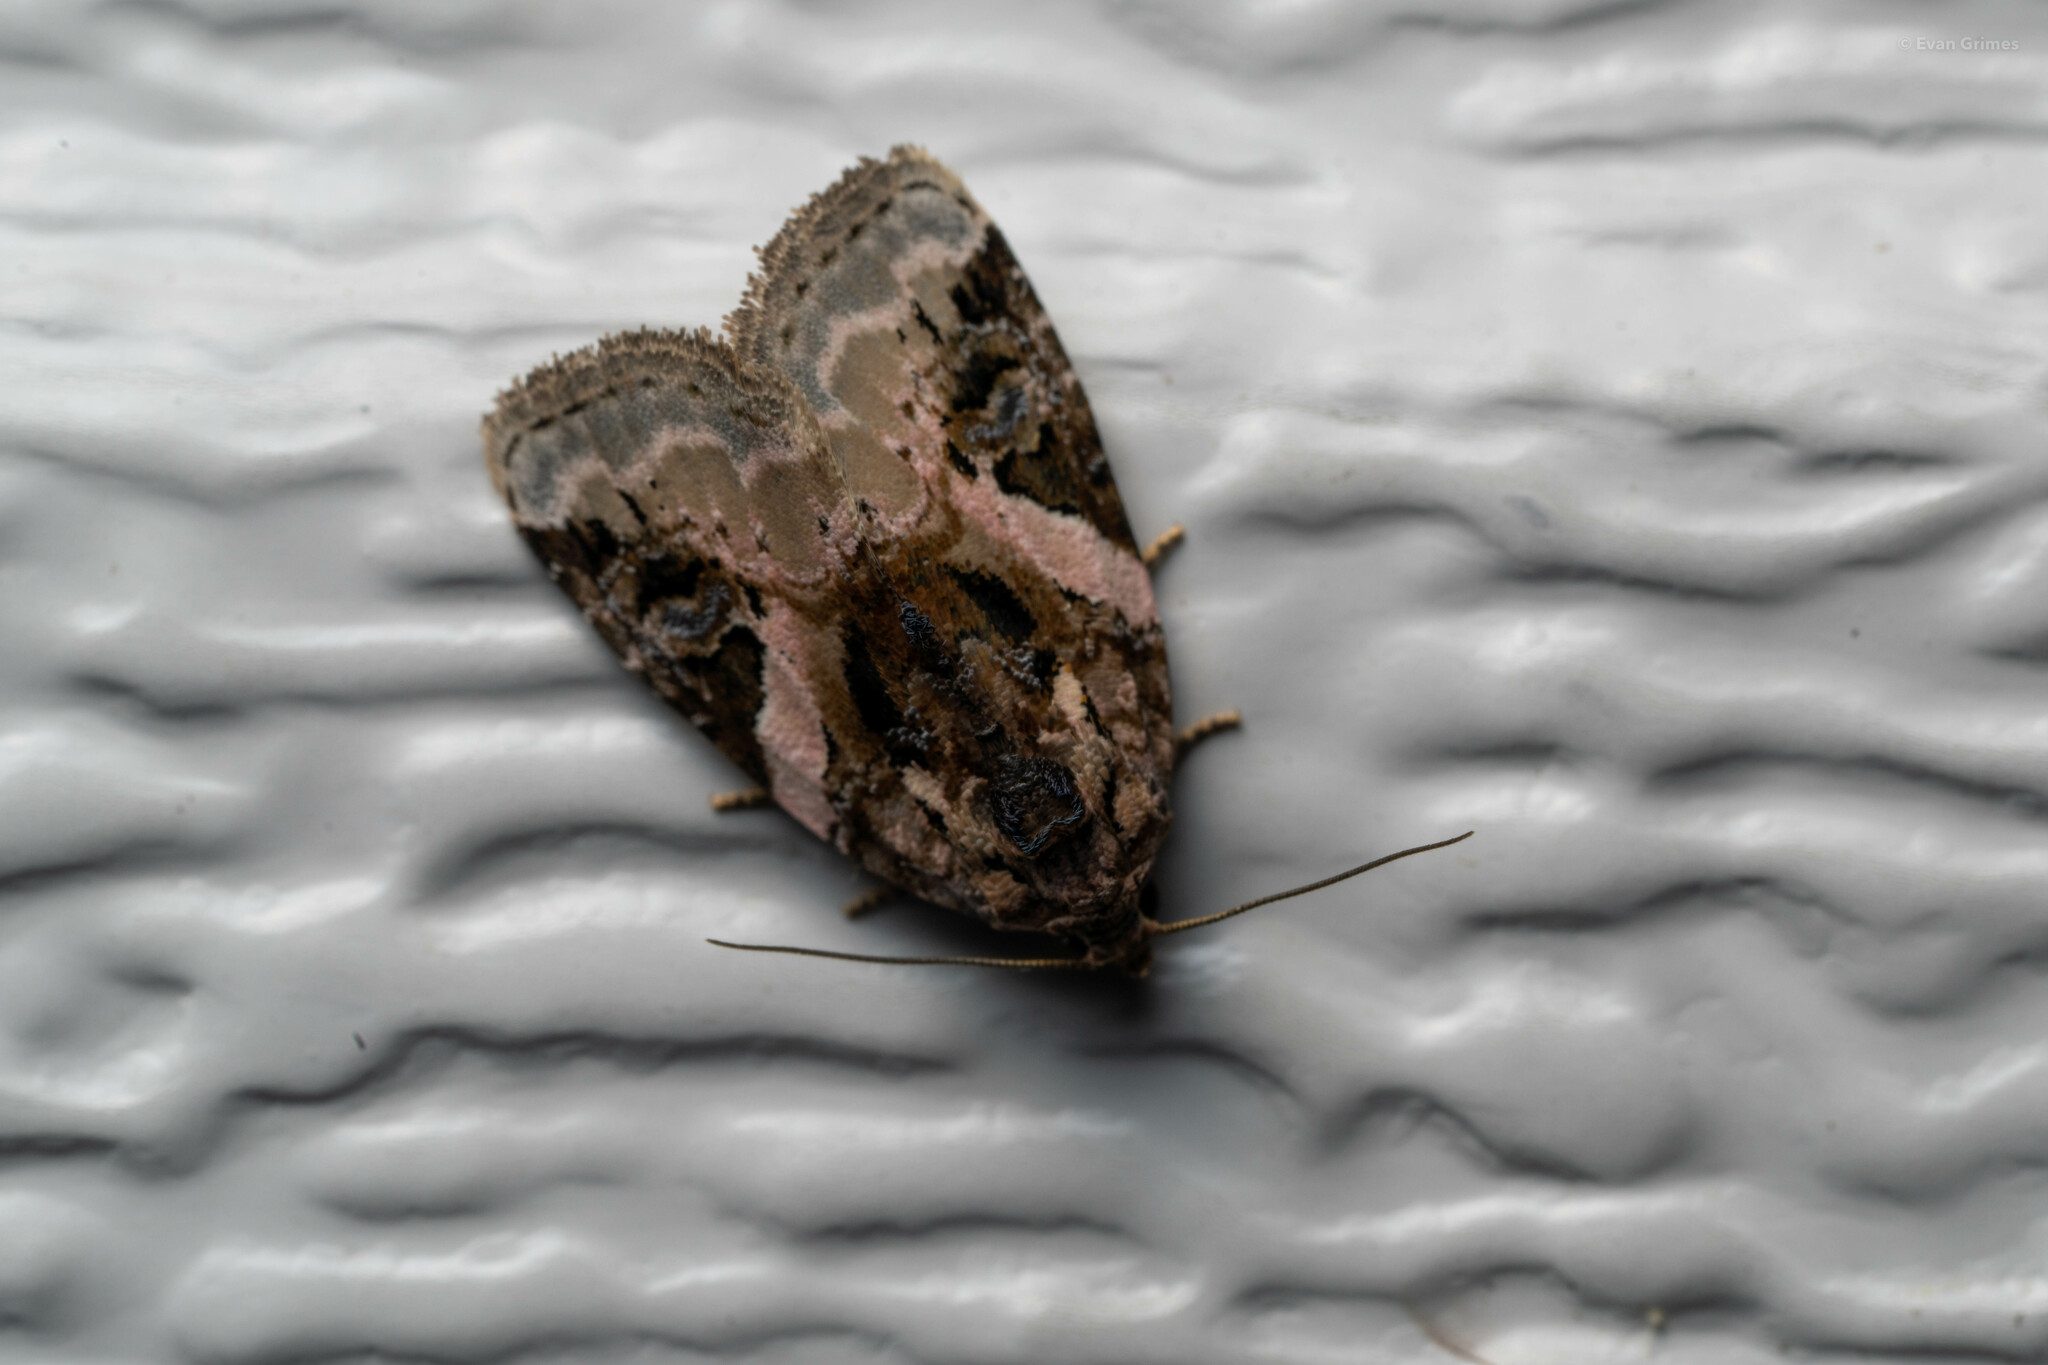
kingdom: Animalia
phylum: Arthropoda
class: Insecta
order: Lepidoptera
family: Noctuidae
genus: Pseudeustrotia
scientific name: Pseudeustrotia carneola
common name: Pink-barred lithacodia moth
